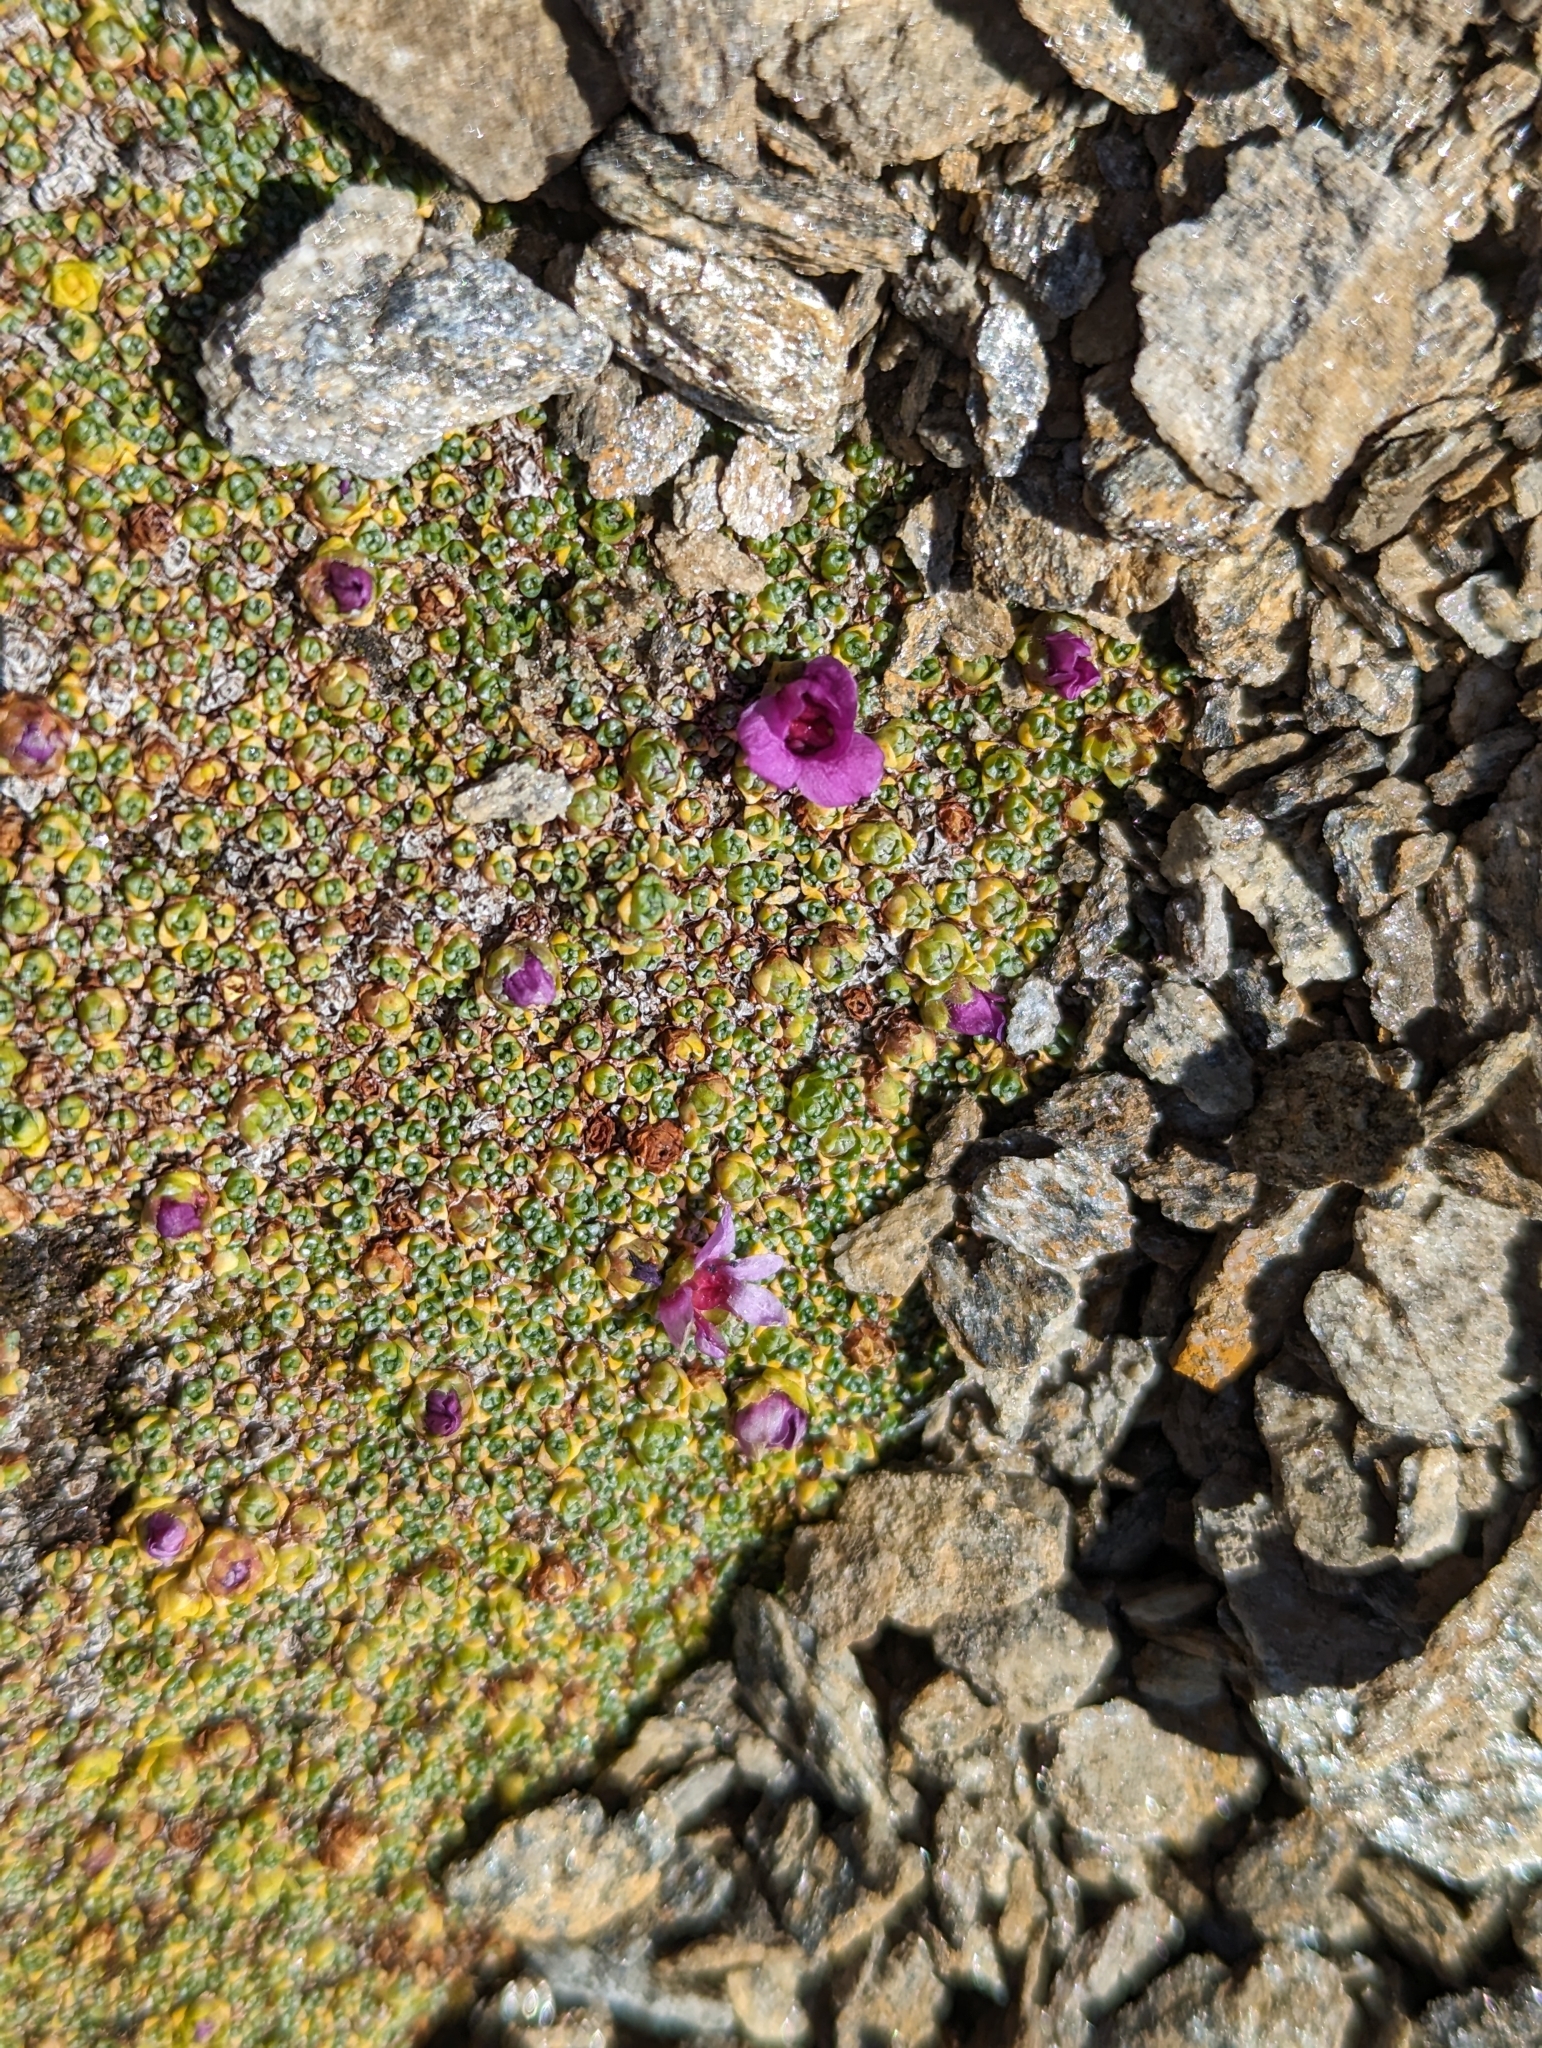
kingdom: Plantae
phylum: Tracheophyta
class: Magnoliopsida
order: Saxifragales
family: Saxifragaceae
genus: Saxifraga
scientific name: Saxifraga oppositifolia
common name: Purple saxifrage
